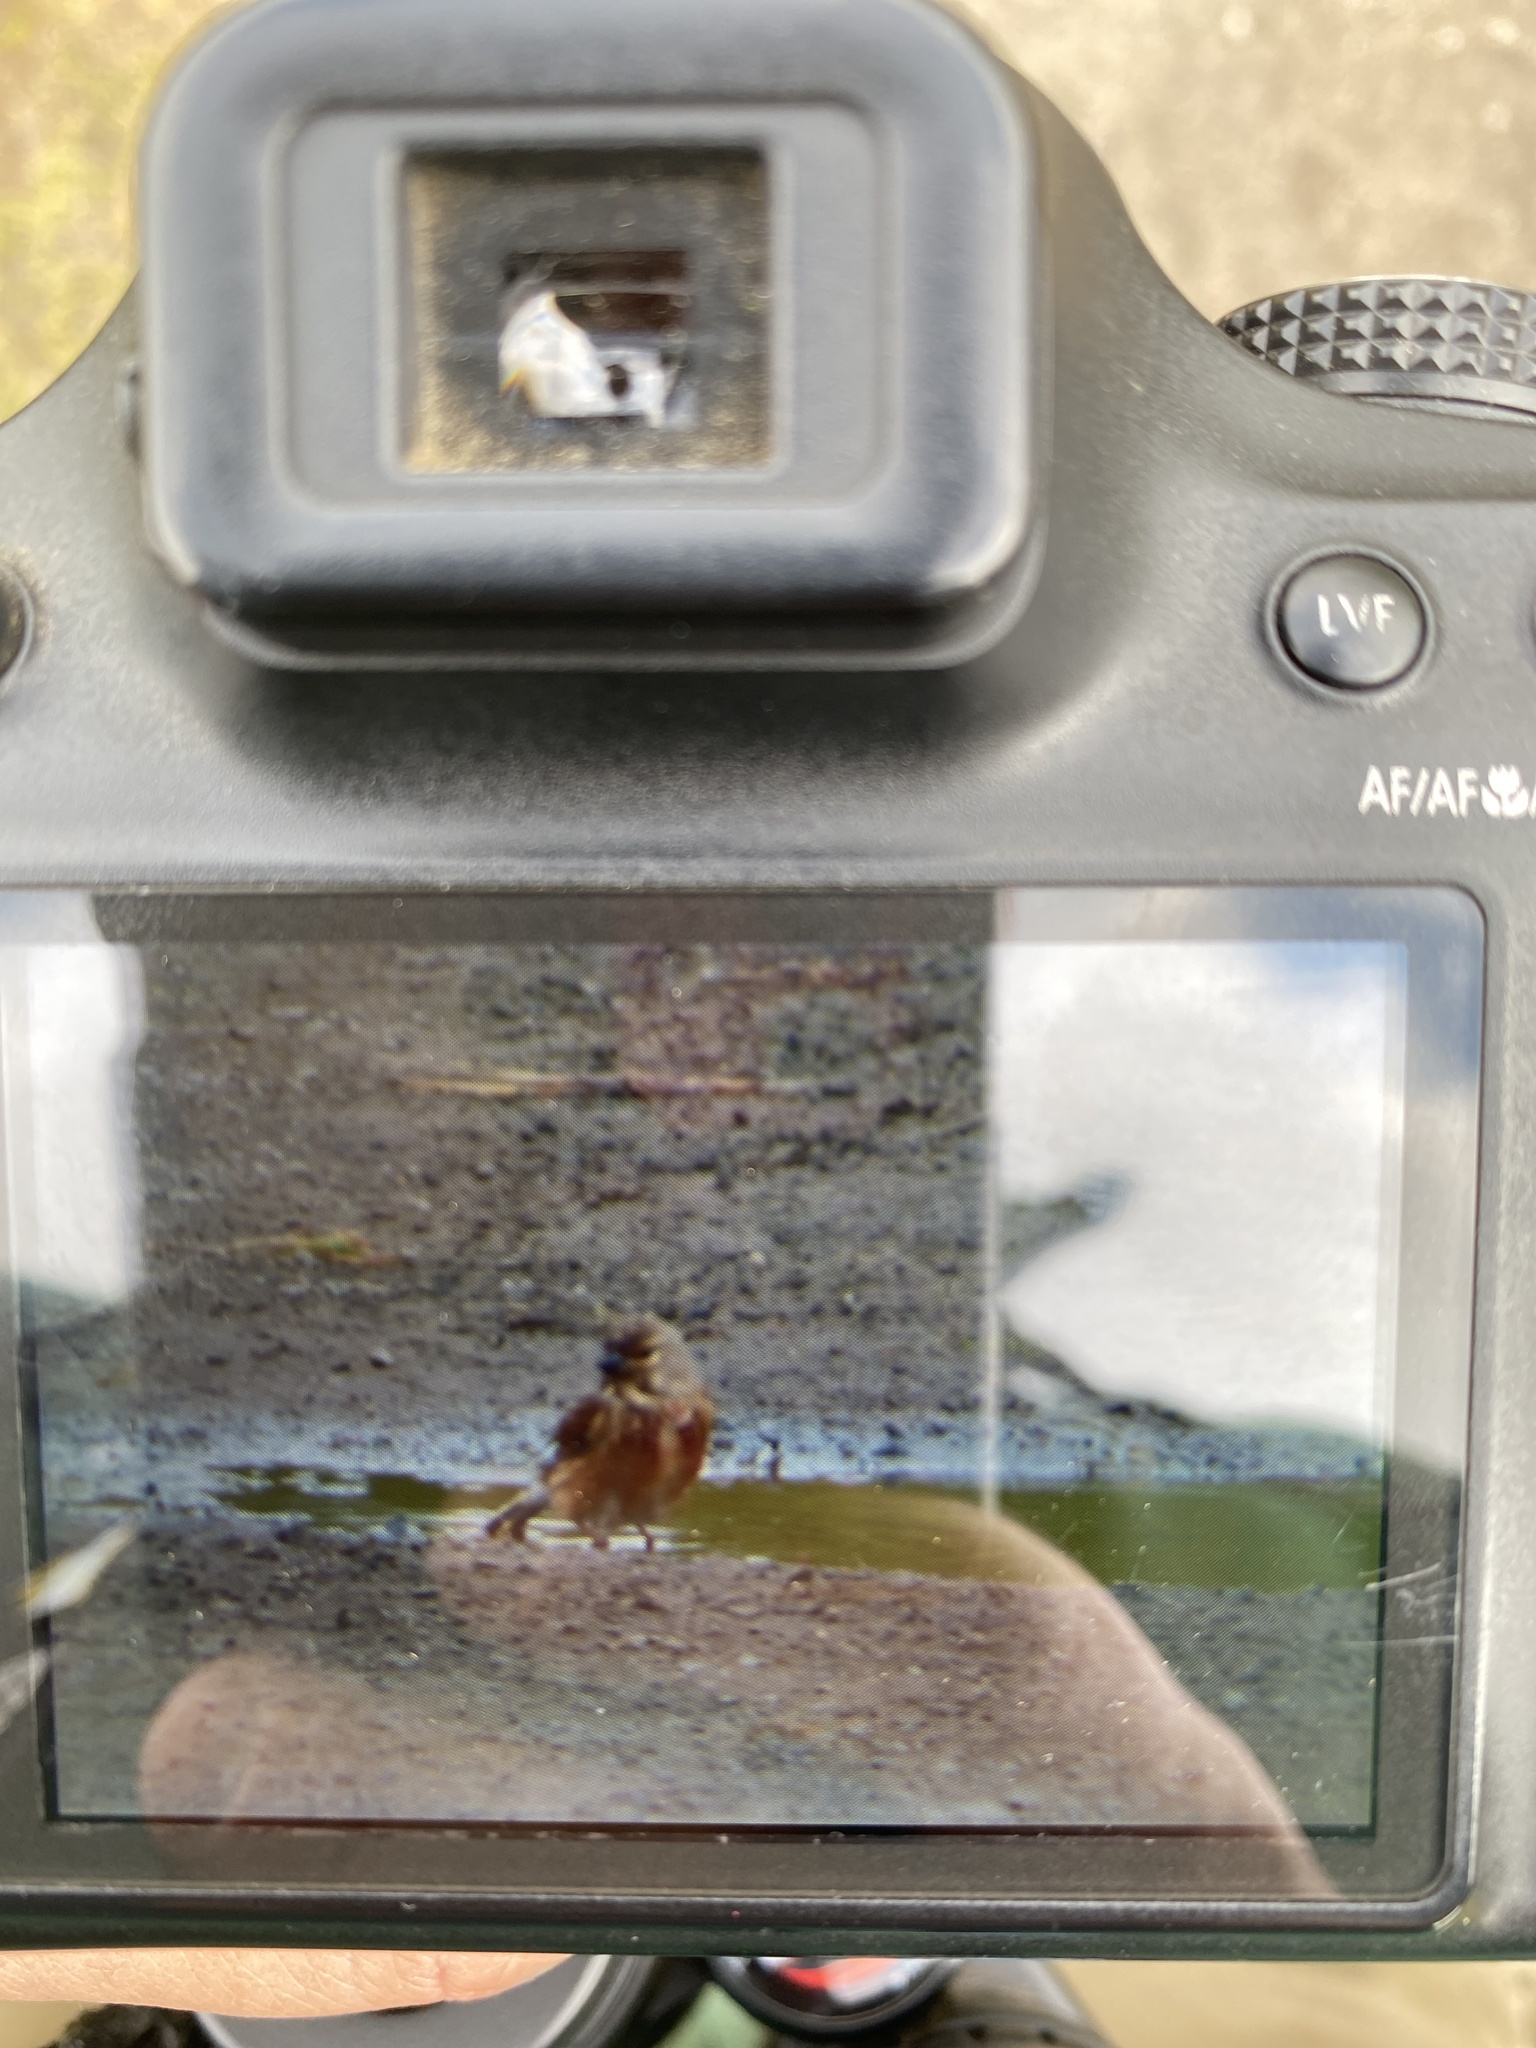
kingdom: Animalia
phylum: Chordata
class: Aves
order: Passeriformes
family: Fringillidae
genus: Linaria
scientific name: Linaria cannabina
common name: Common linnet
